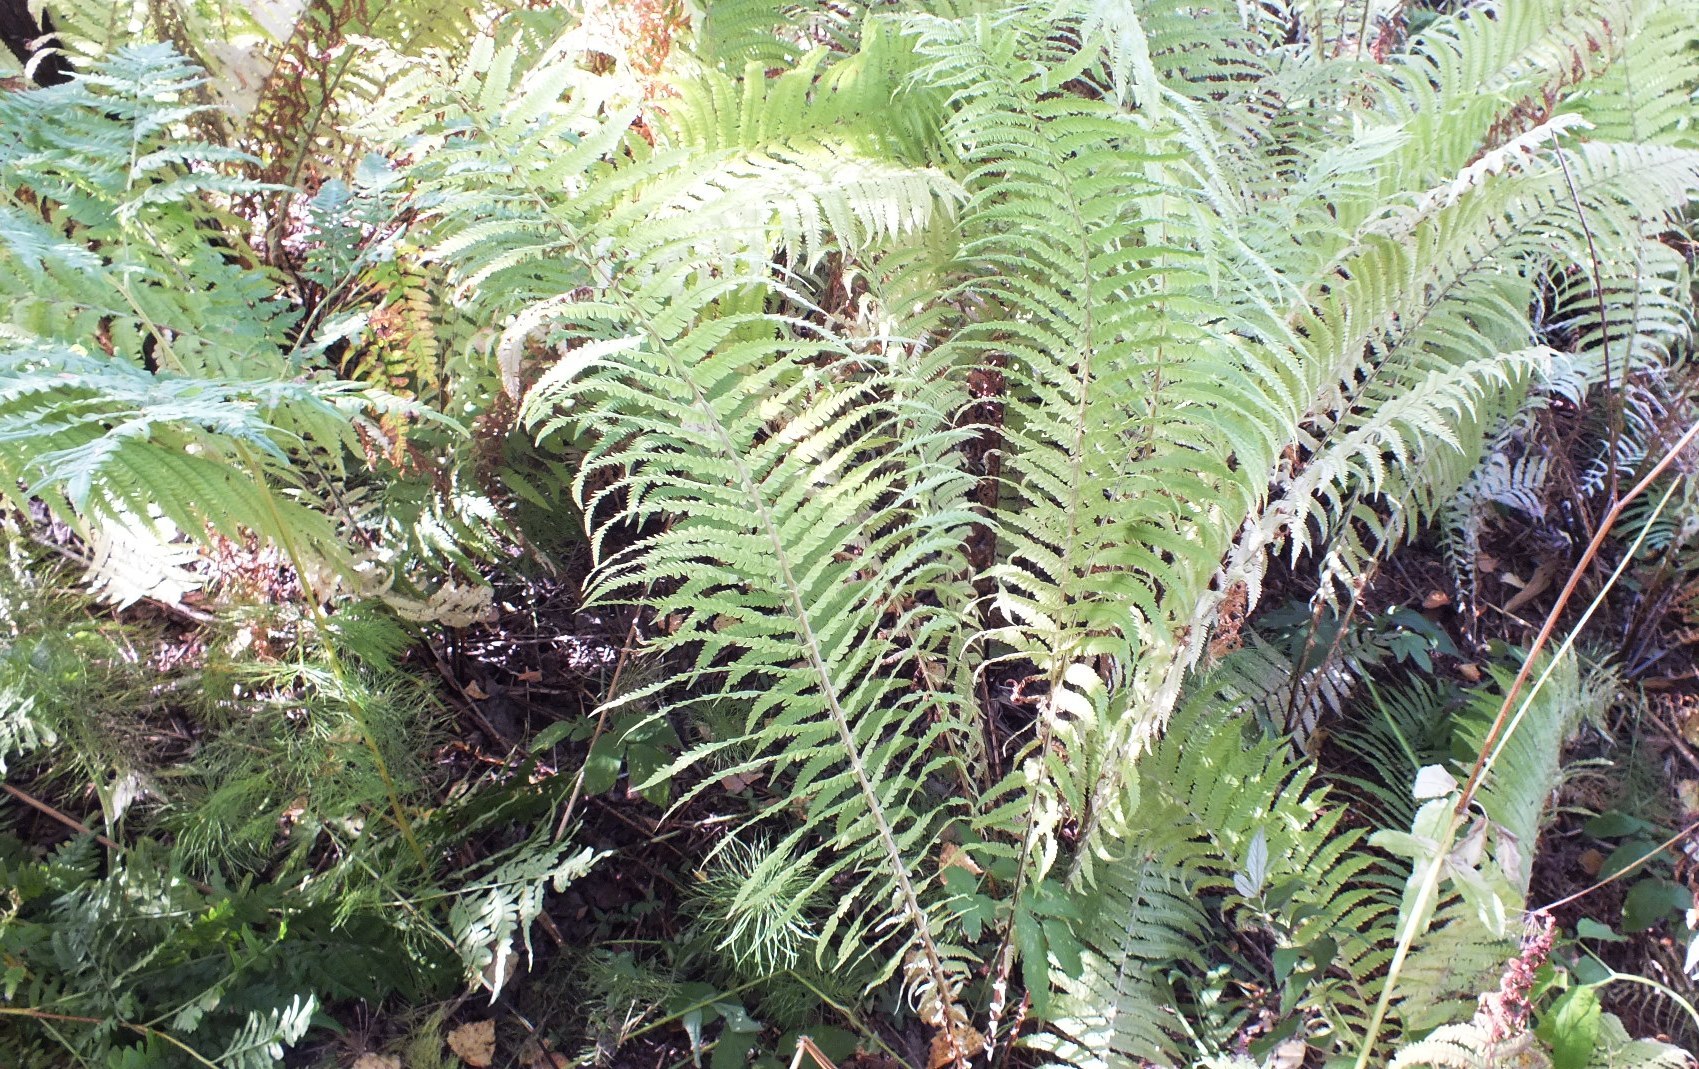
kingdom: Plantae
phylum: Tracheophyta
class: Polypodiopsida
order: Polypodiales
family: Onocleaceae
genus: Matteuccia
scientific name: Matteuccia struthiopteris
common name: Ostrich fern
